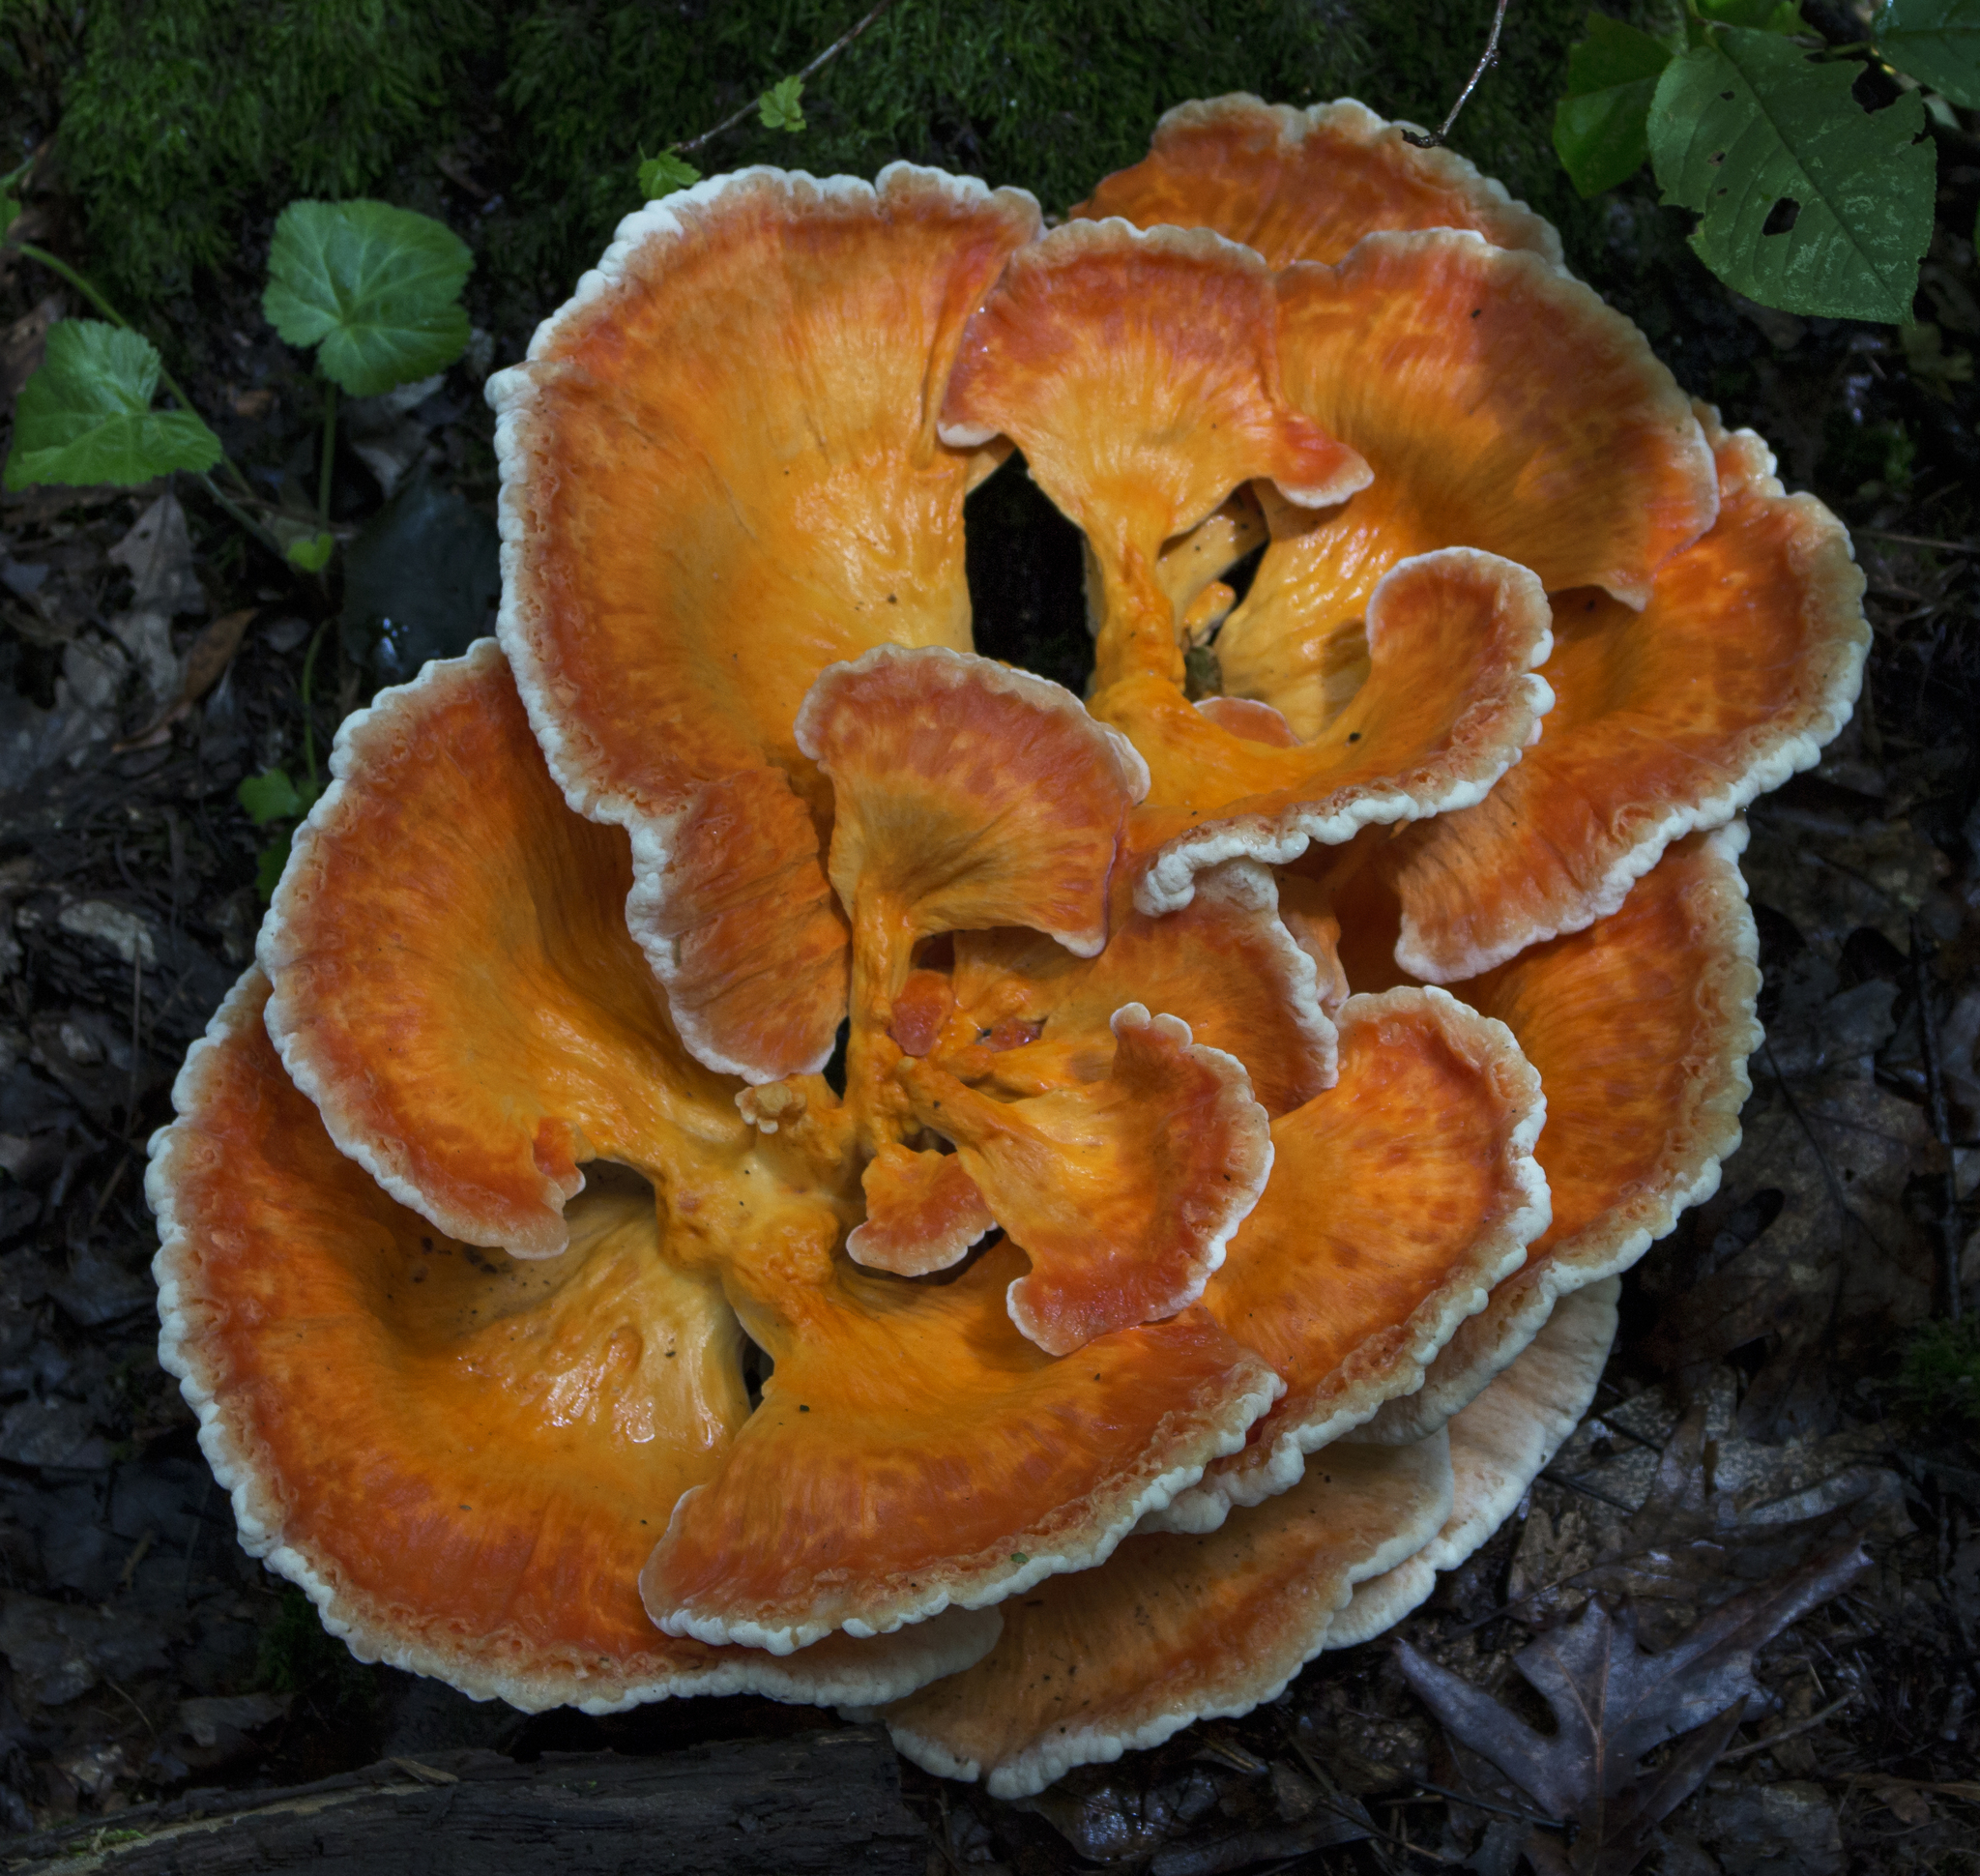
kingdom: Fungi
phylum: Basidiomycota
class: Agaricomycetes
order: Polyporales
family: Laetiporaceae
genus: Laetiporus
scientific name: Laetiporus sulphureus
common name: Chicken of the woods
